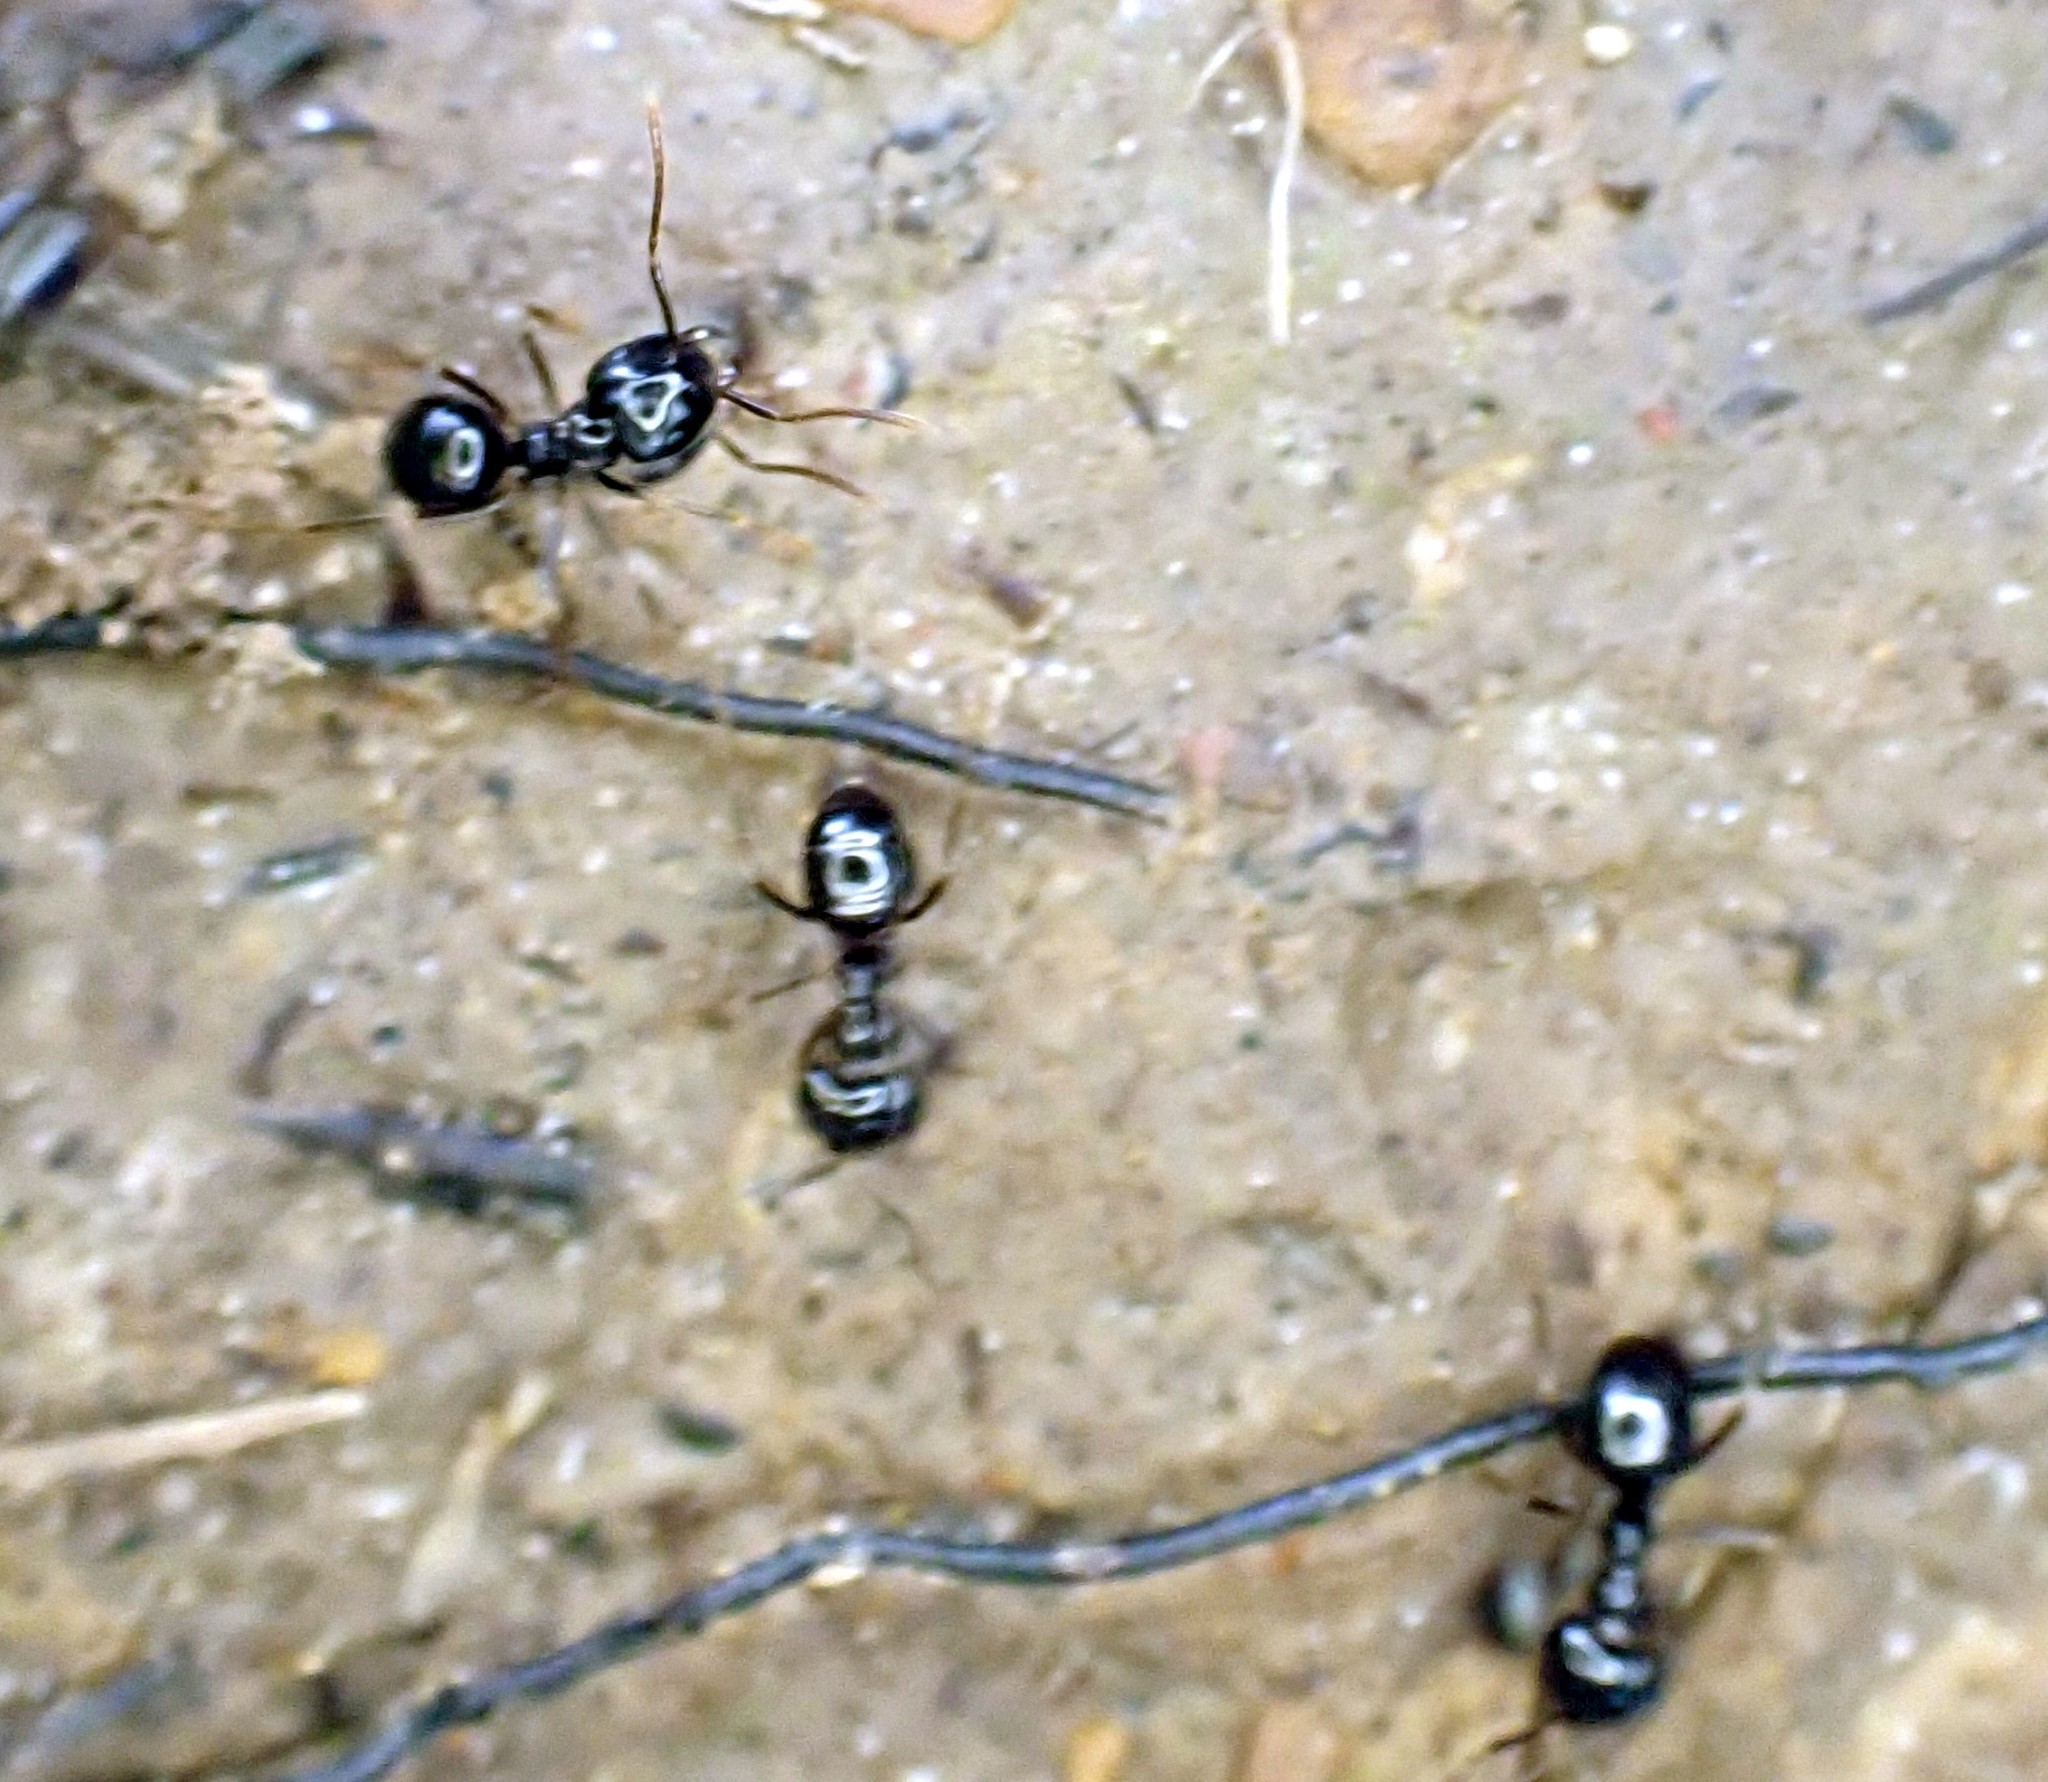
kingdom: Animalia
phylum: Arthropoda
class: Insecta
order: Hymenoptera
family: Formicidae
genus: Lasius
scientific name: Lasius fuliginosus
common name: Jet ant
